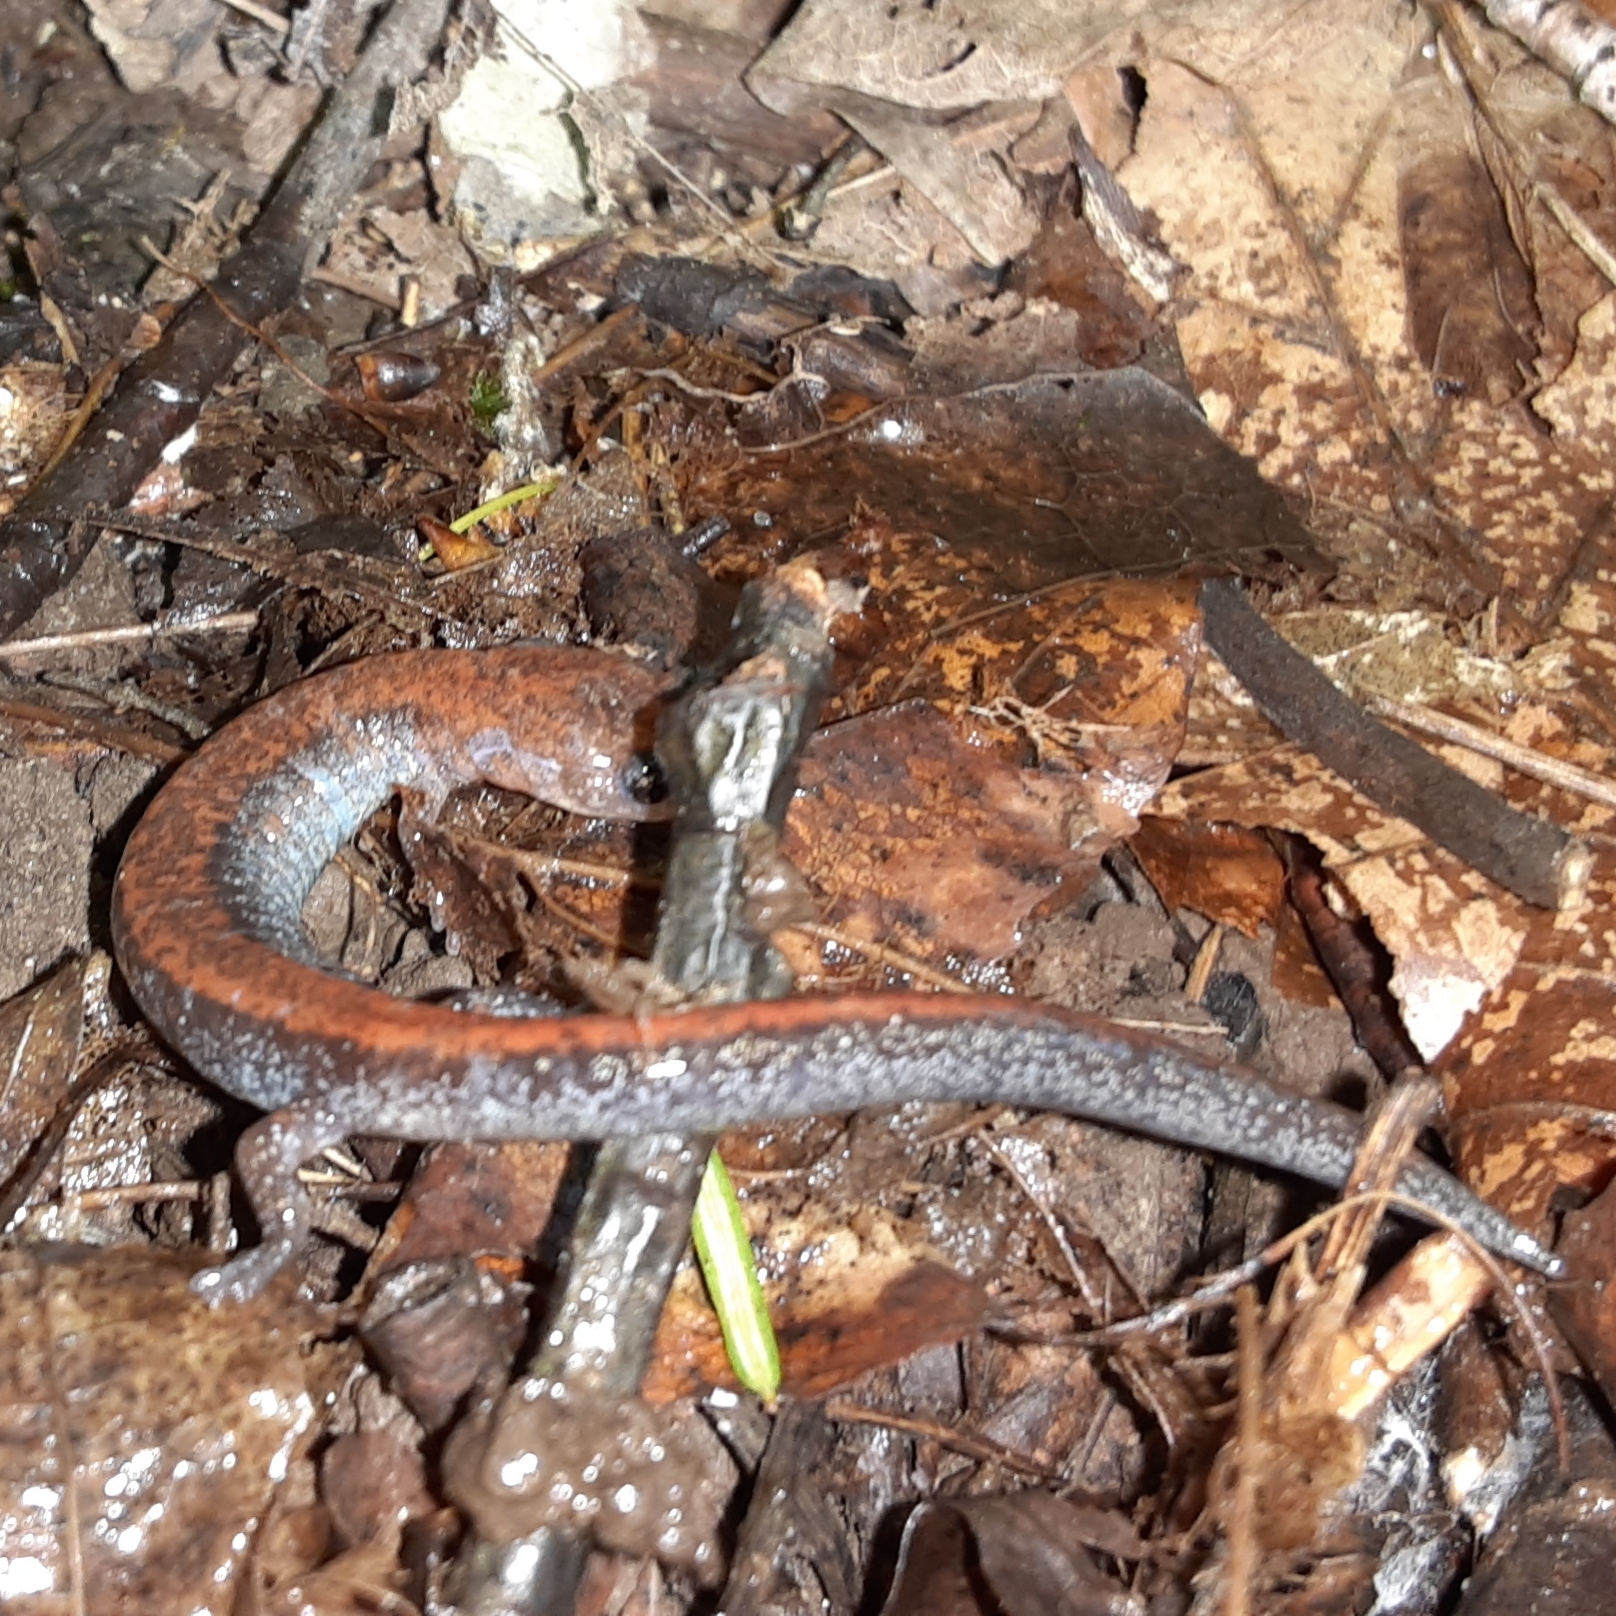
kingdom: Animalia
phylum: Chordata
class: Amphibia
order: Caudata
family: Plethodontidae
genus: Plethodon
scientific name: Plethodon cinereus
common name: Redback salamander
